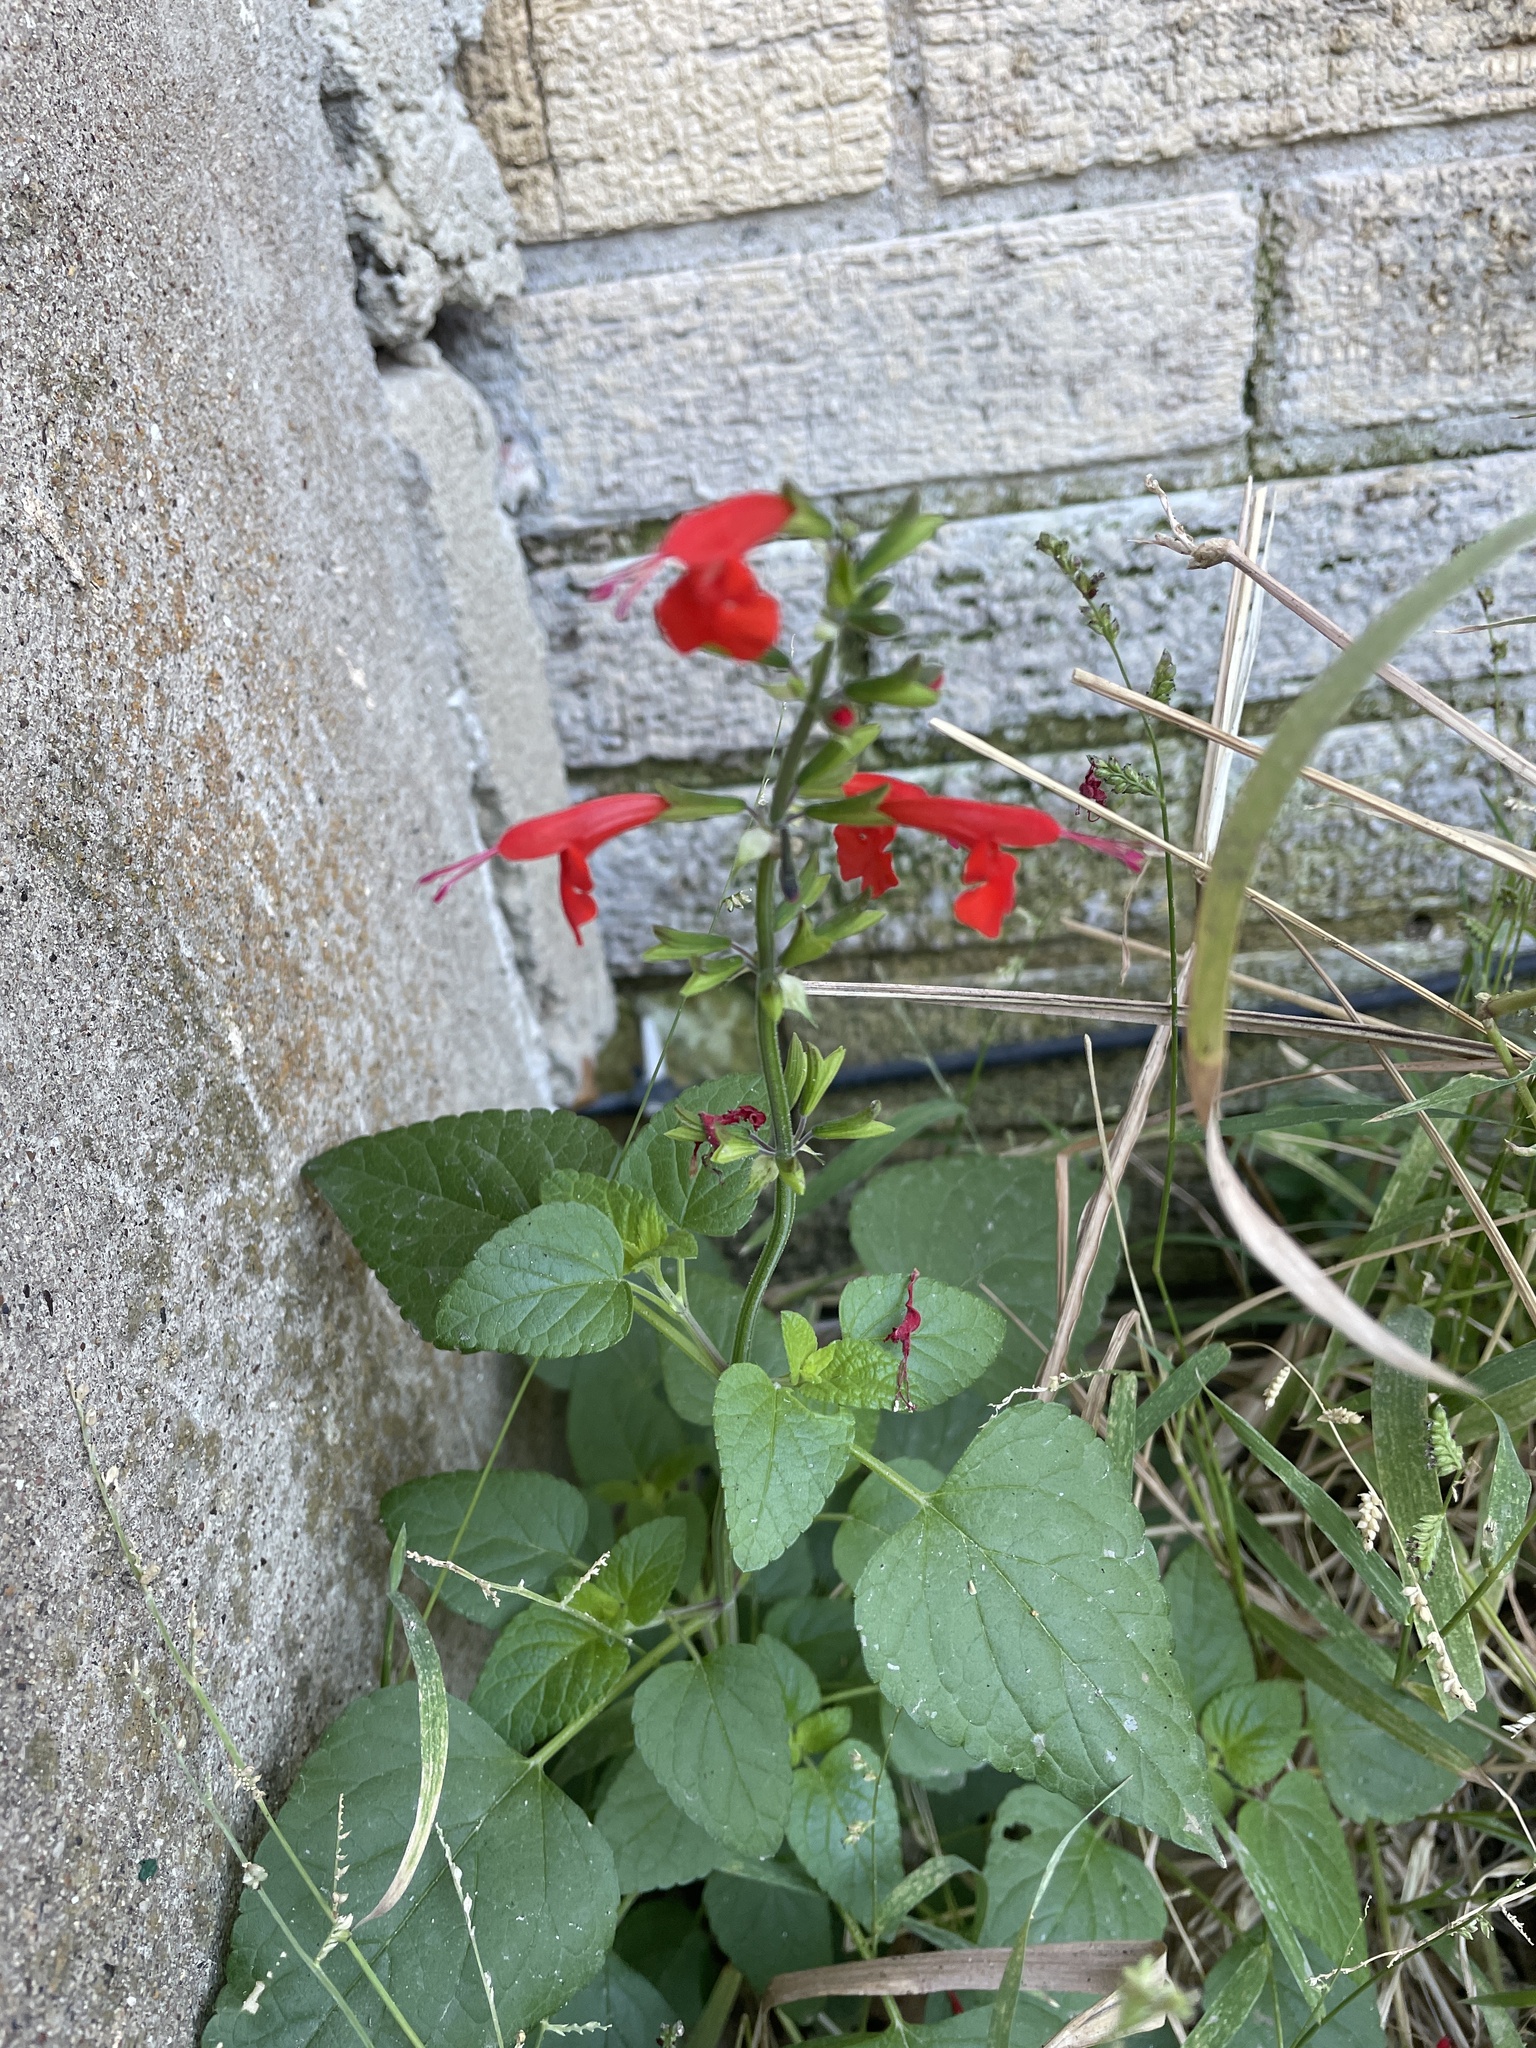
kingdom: Plantae
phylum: Tracheophyta
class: Magnoliopsida
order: Lamiales
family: Lamiaceae
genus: Salvia
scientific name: Salvia coccinea
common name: Blood sage
